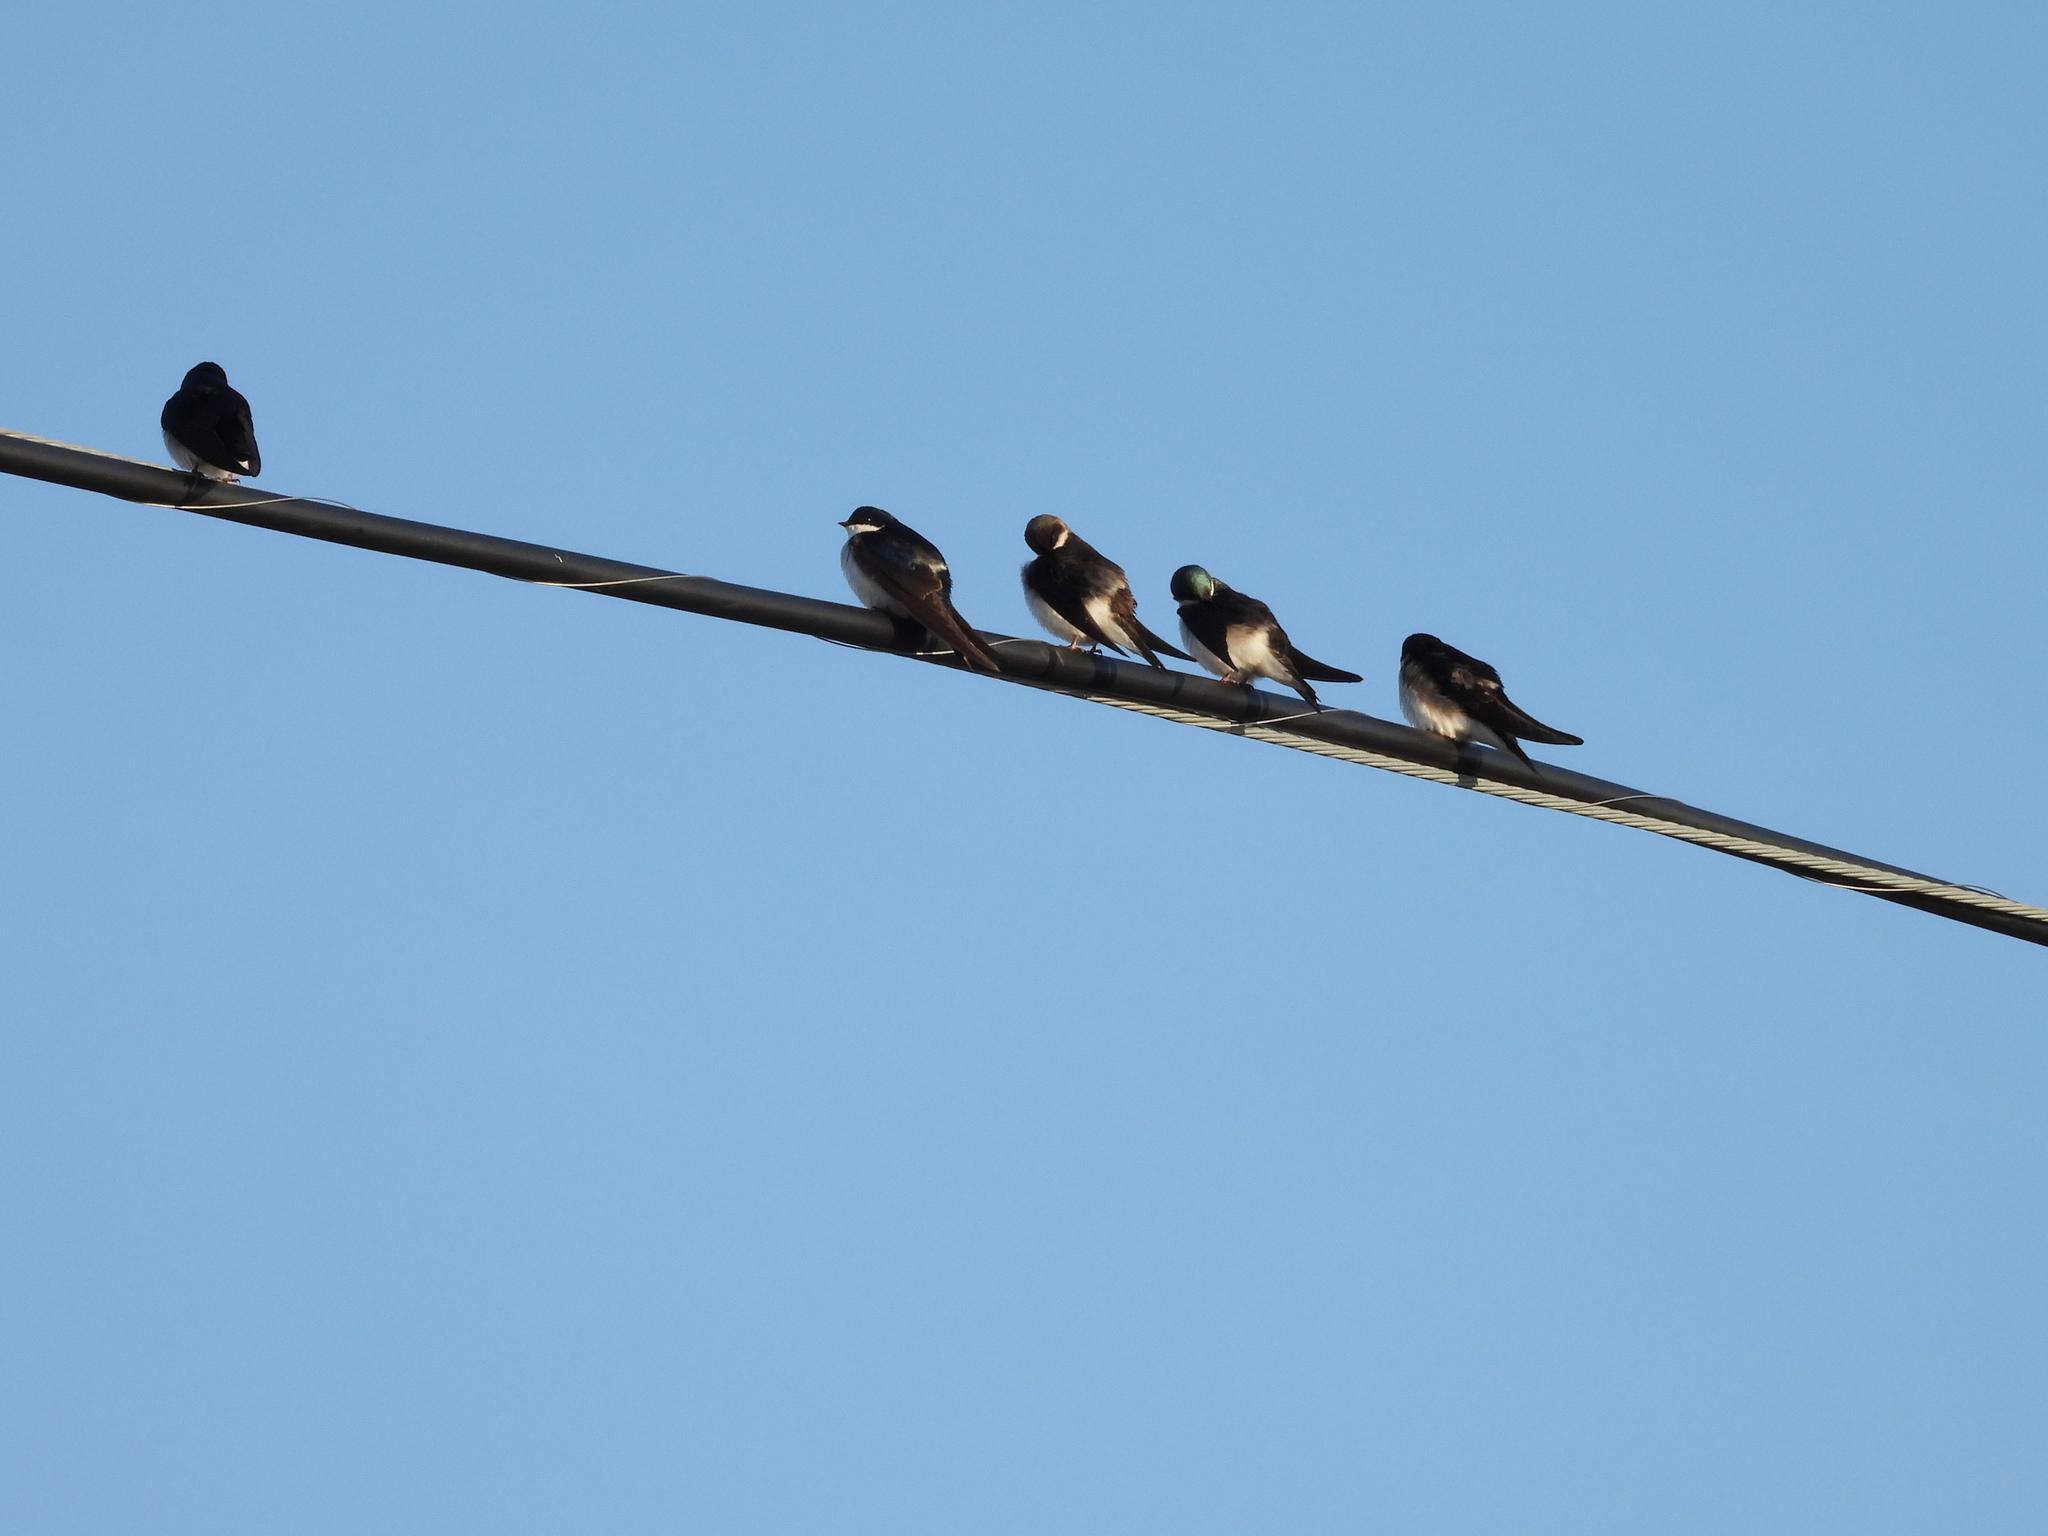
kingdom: Animalia
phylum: Chordata
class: Aves
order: Passeriformes
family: Hirundinidae
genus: Tachycineta
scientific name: Tachycineta bicolor
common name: Tree swallow
